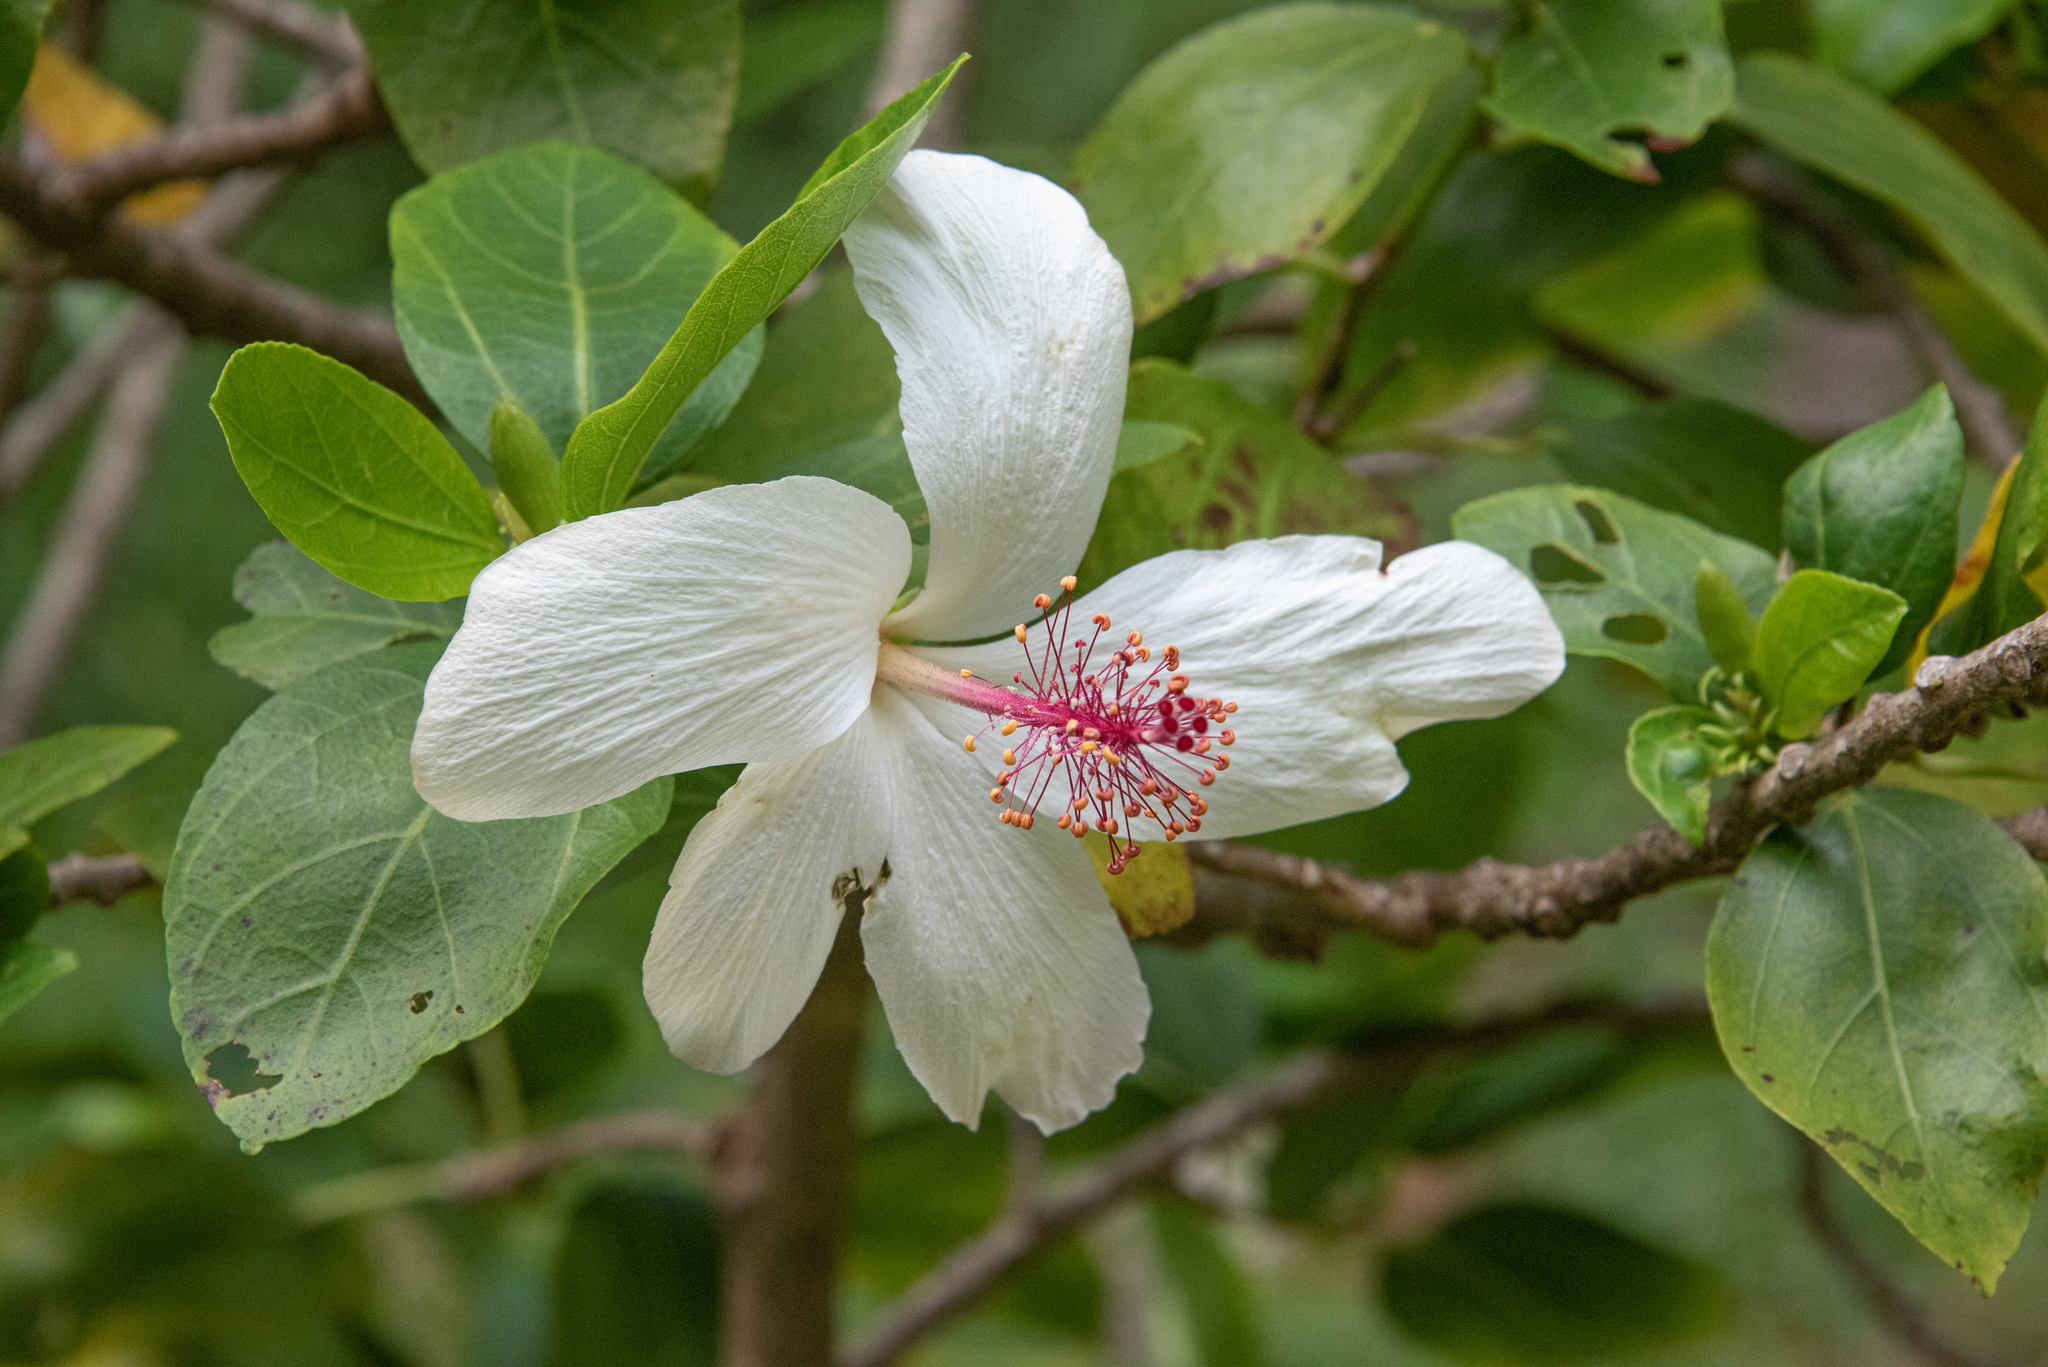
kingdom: Plantae
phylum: Tracheophyta
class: Magnoliopsida
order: Malvales
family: Malvaceae
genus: Hibiscus
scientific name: Hibiscus waimeae
